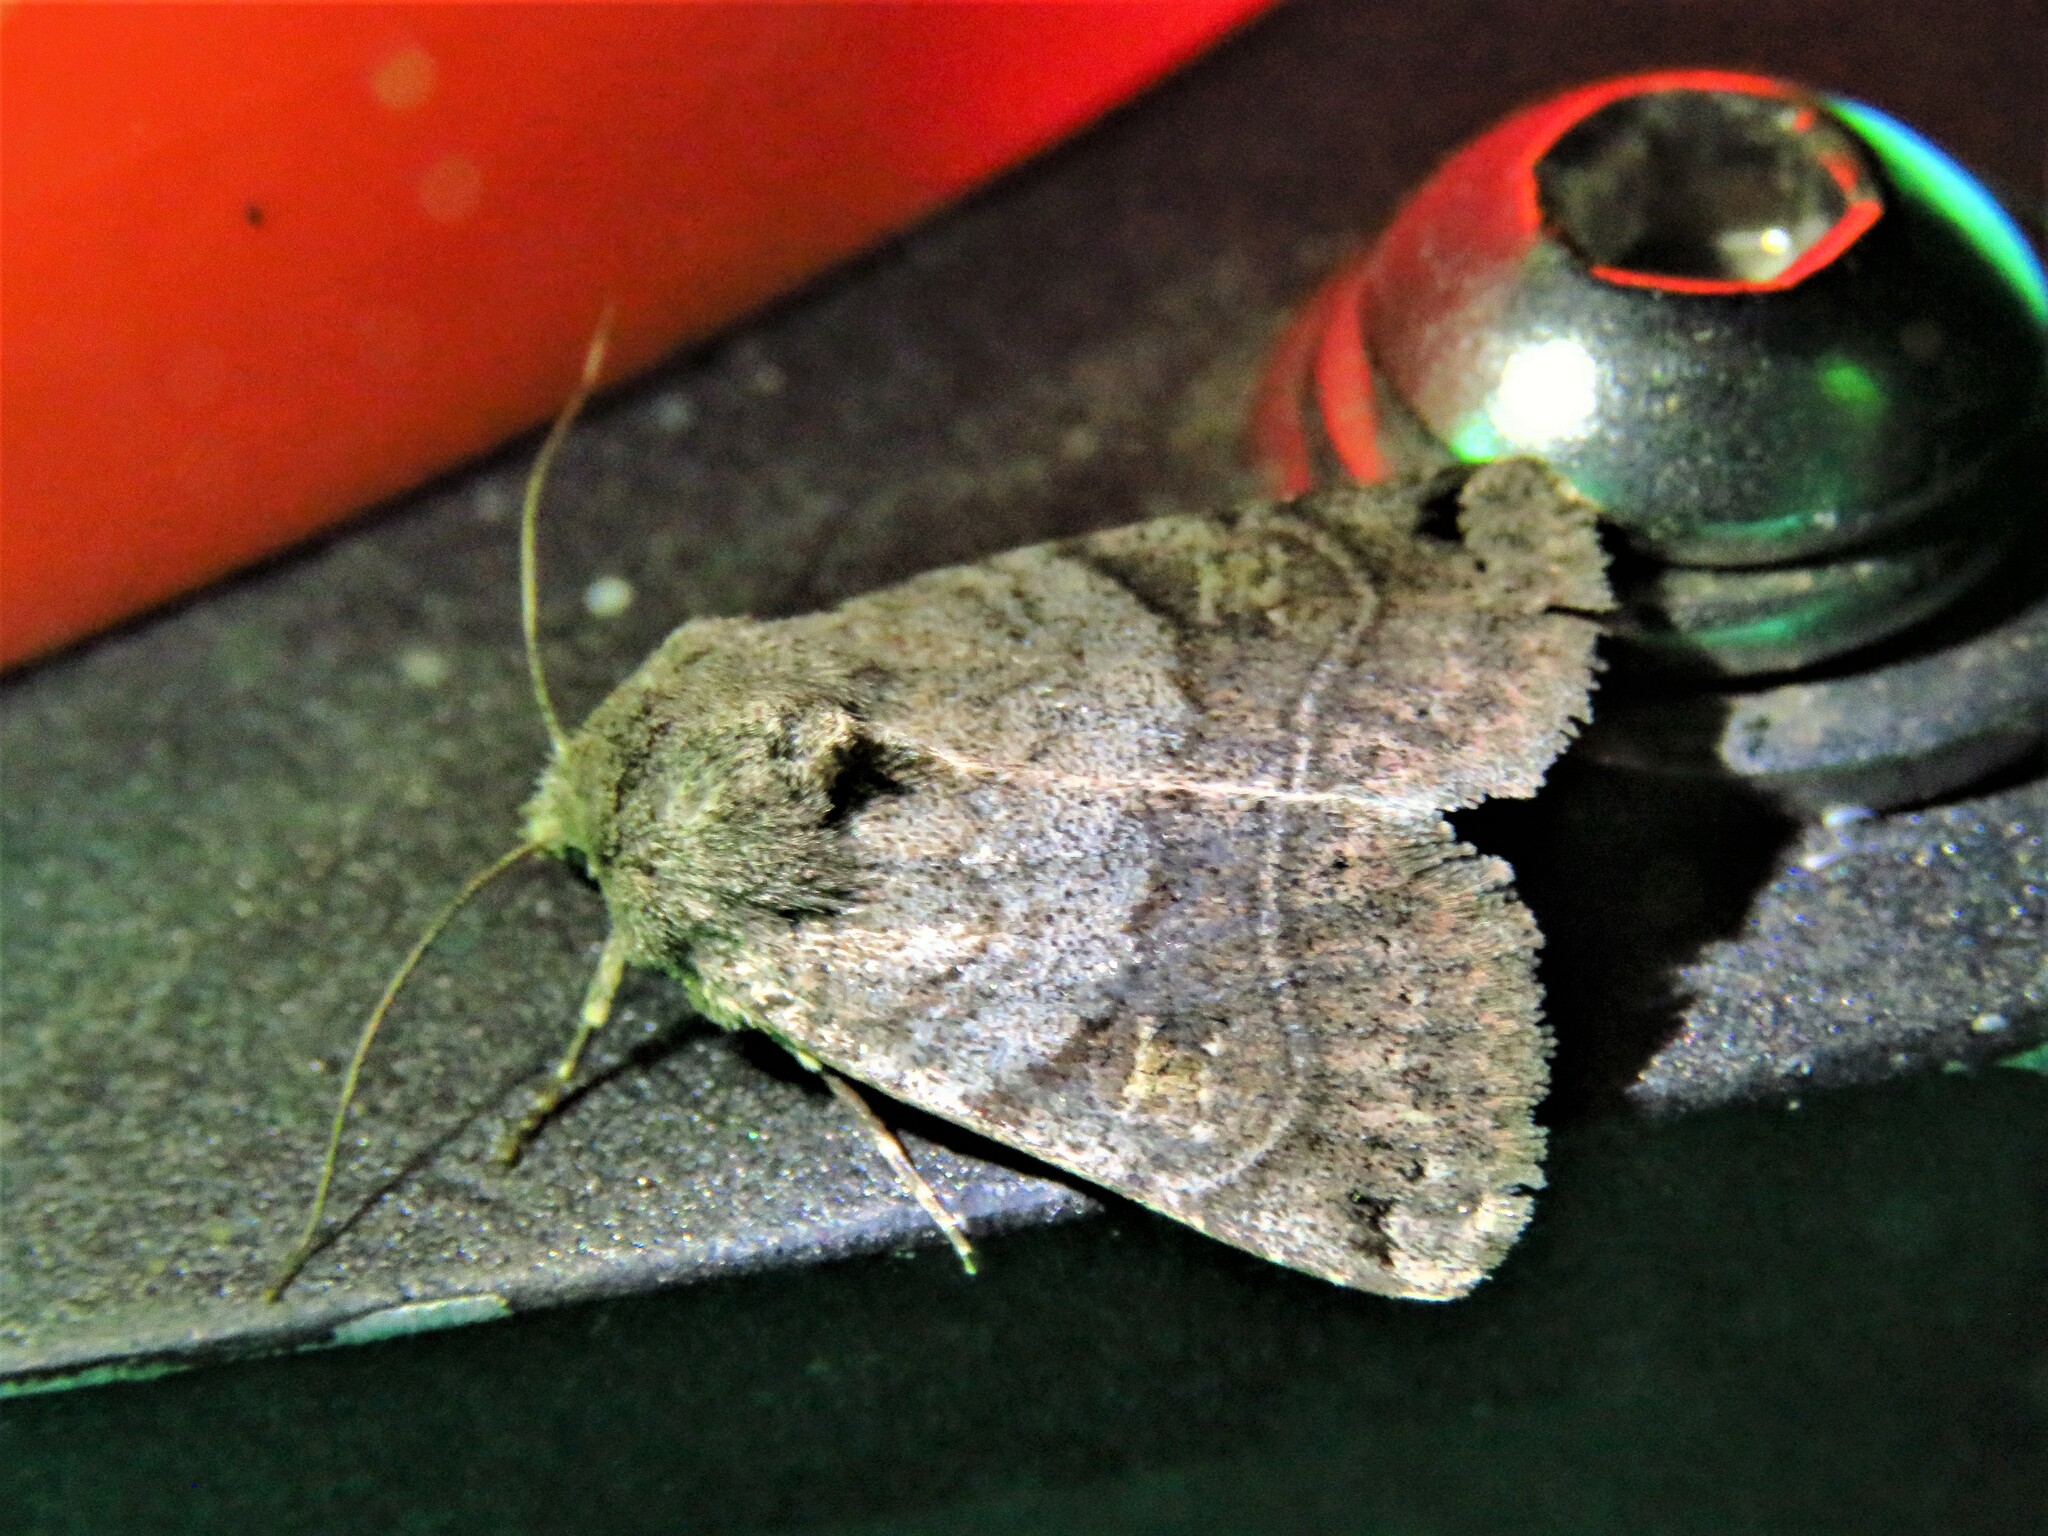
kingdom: Animalia
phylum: Arthropoda
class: Insecta
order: Lepidoptera
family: Noctuidae
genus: Ulolonche
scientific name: Ulolonche disticha
